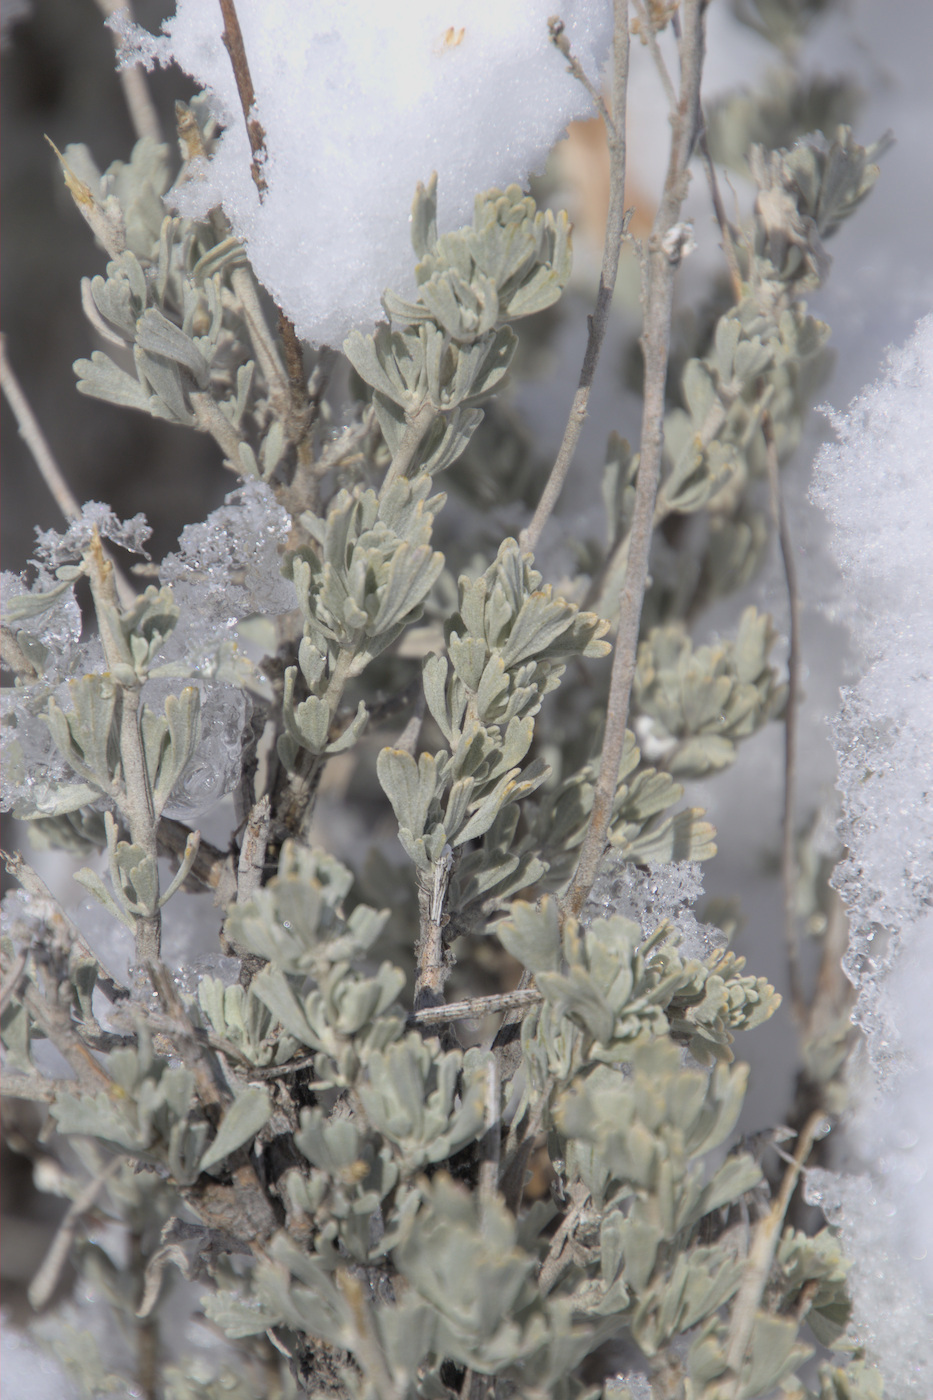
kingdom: Plantae
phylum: Tracheophyta
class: Magnoliopsida
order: Asterales
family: Asteraceae
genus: Artemisia
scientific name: Artemisia tridentata
